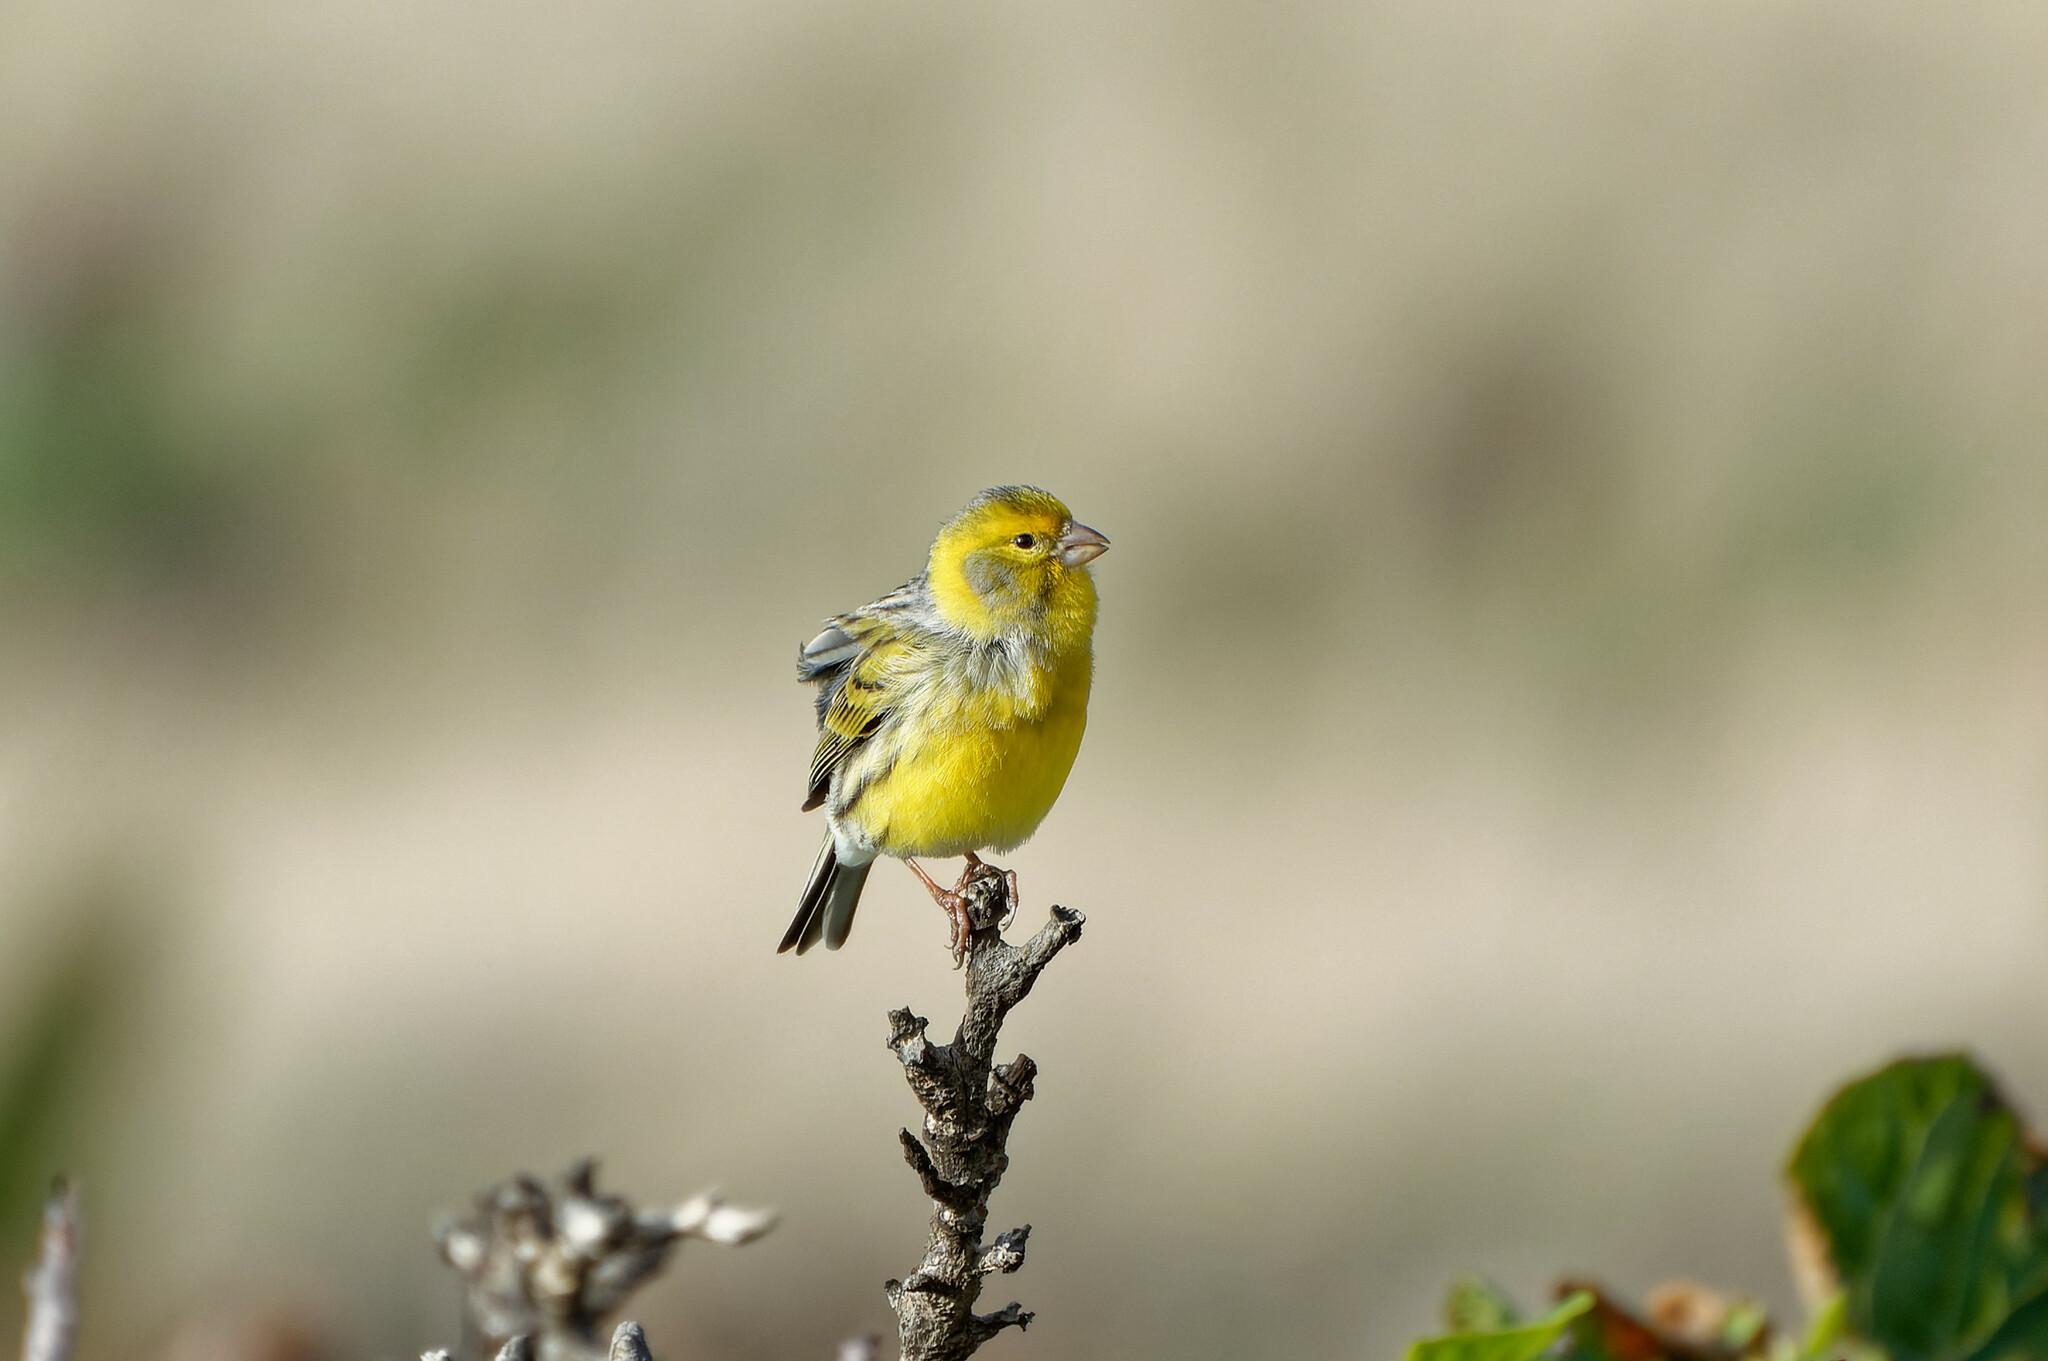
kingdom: Animalia
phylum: Chordata
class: Aves
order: Passeriformes
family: Fringillidae
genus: Serinus
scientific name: Serinus canaria
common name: Atlantic canary
